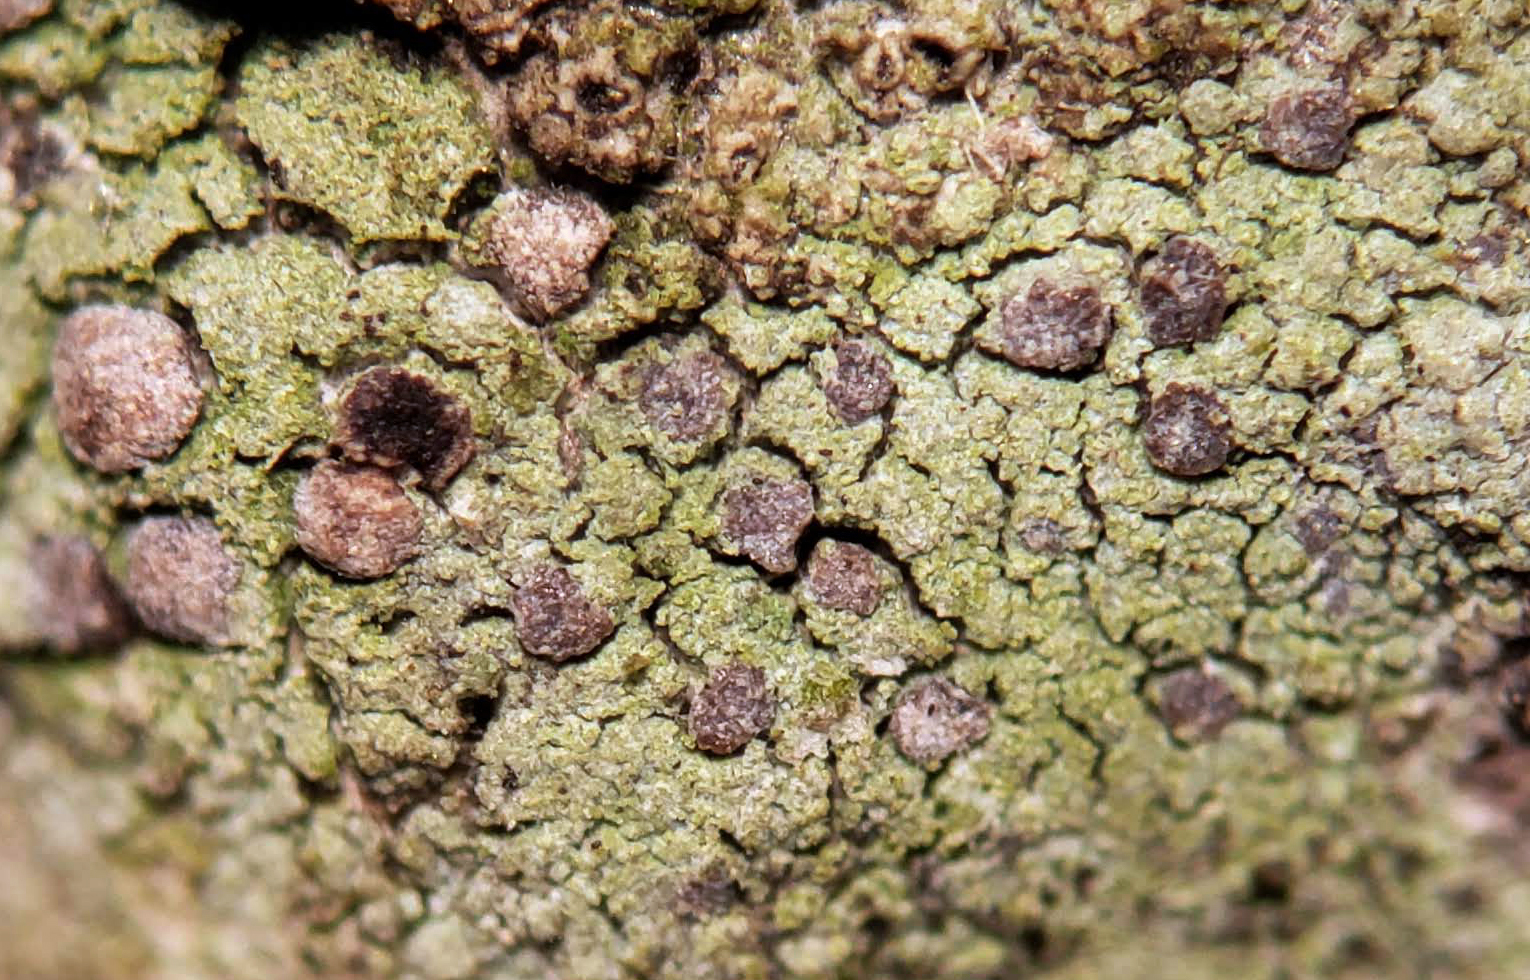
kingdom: Fungi
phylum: Ascomycota
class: Arthoniomycetes
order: Arthoniales
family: Chrysotrichaceae
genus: Chrysothrix
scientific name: Chrysothrix caesia
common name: Frosted comma lichen
